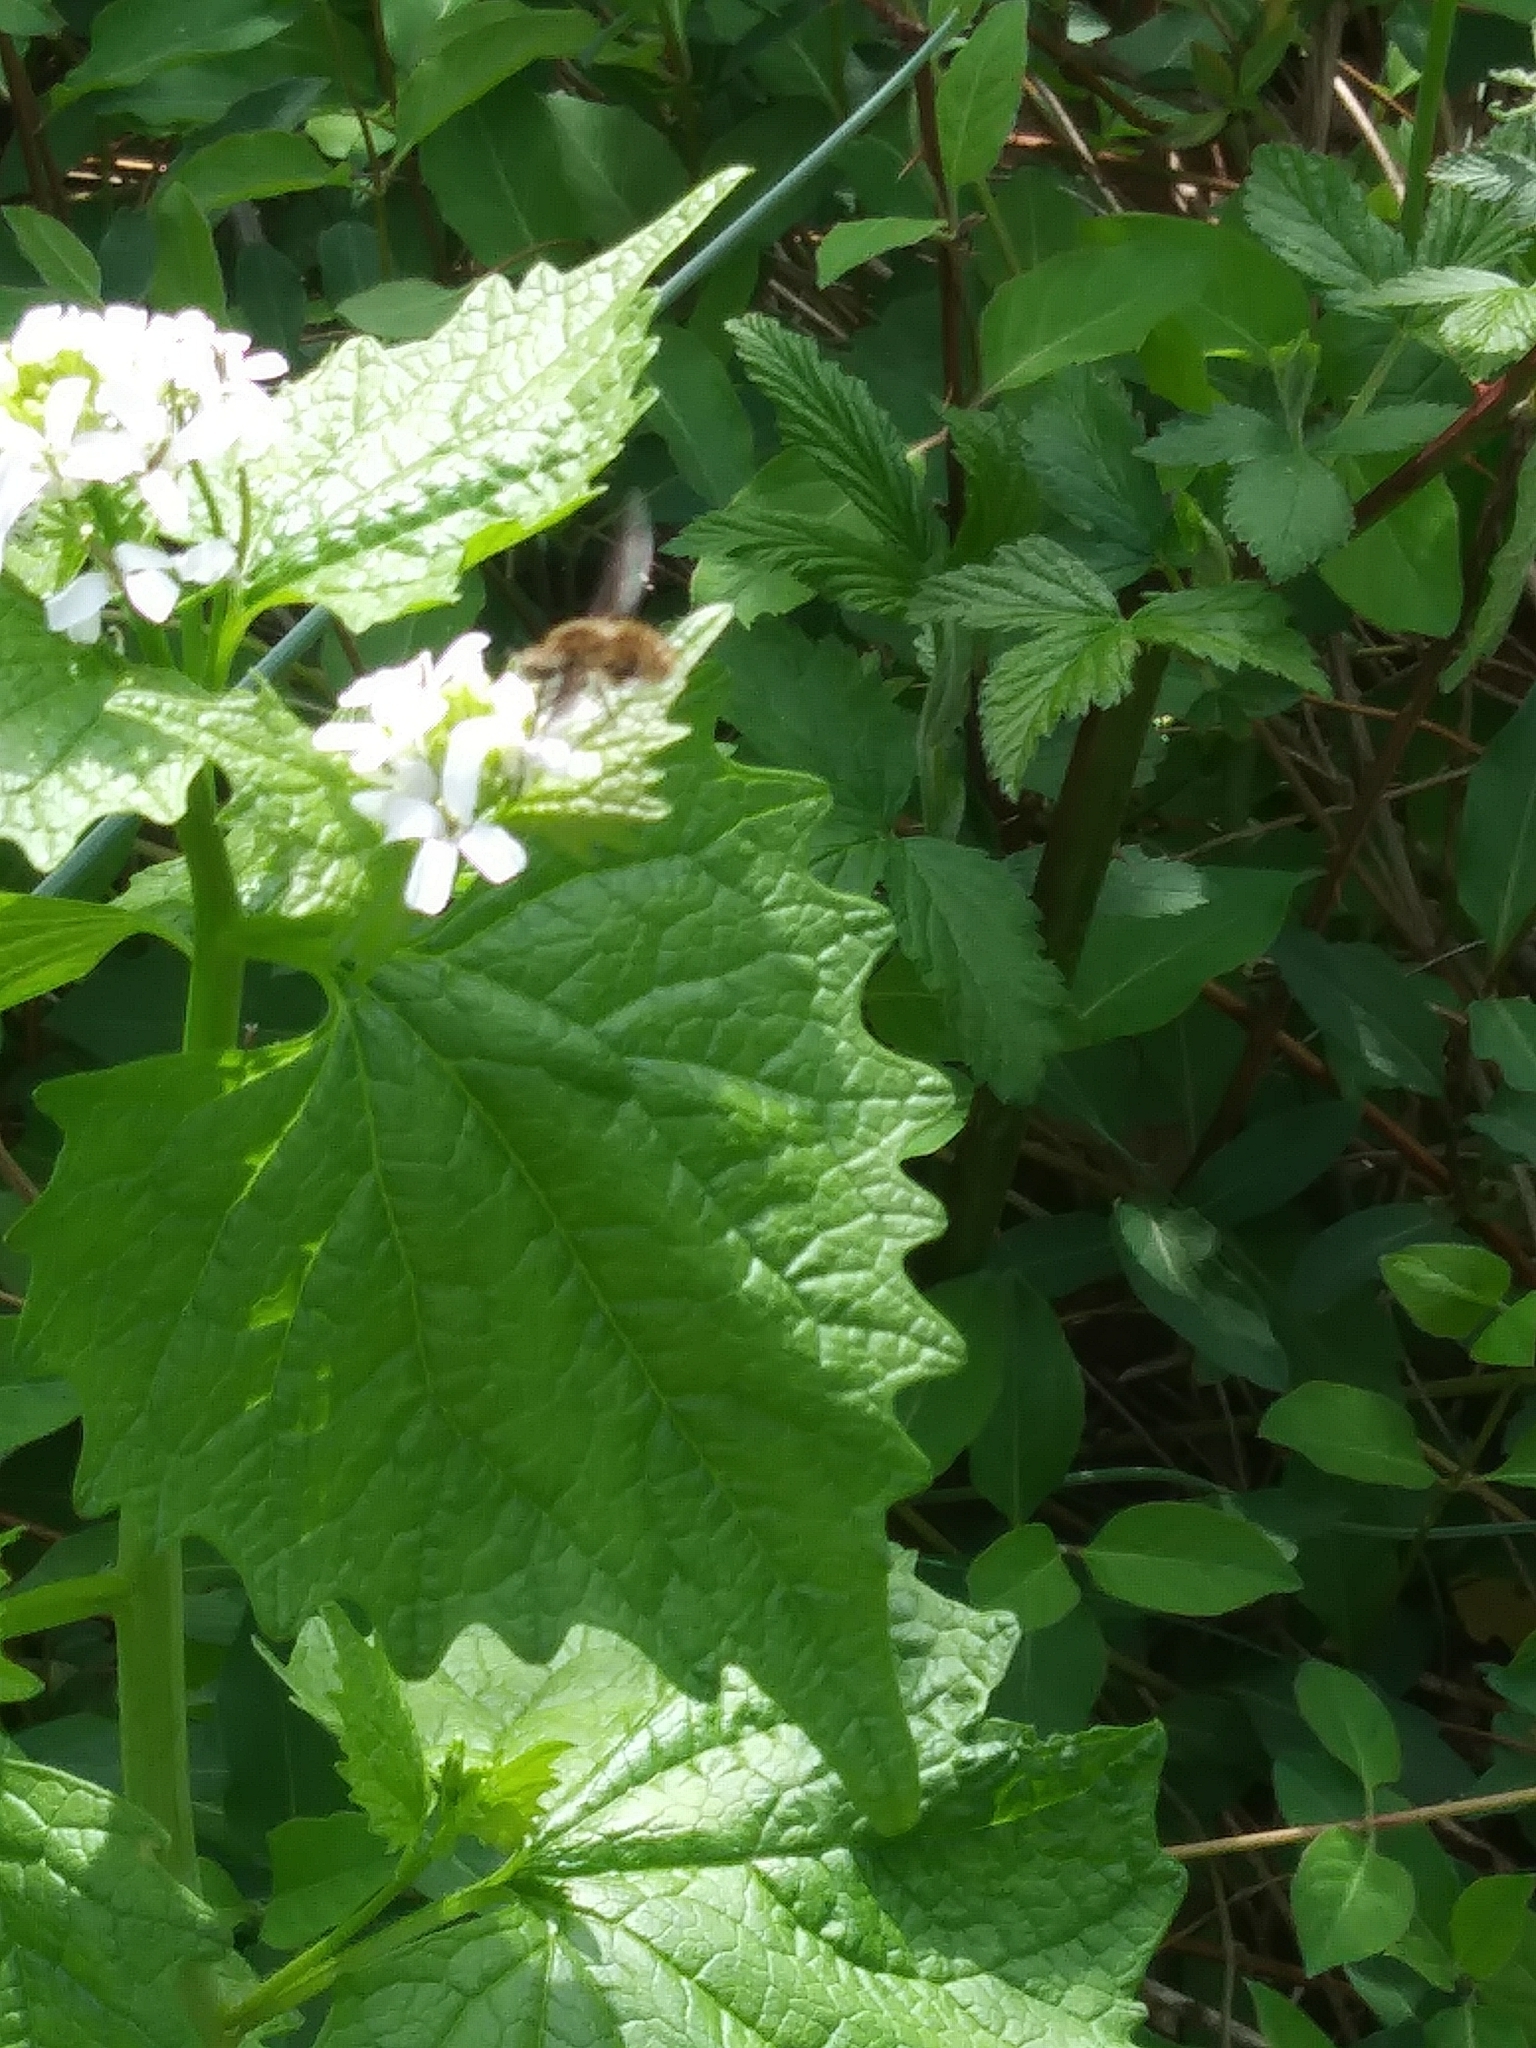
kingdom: Plantae
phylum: Tracheophyta
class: Magnoliopsida
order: Brassicales
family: Brassicaceae
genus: Alliaria
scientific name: Alliaria petiolata
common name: Garlic mustard
